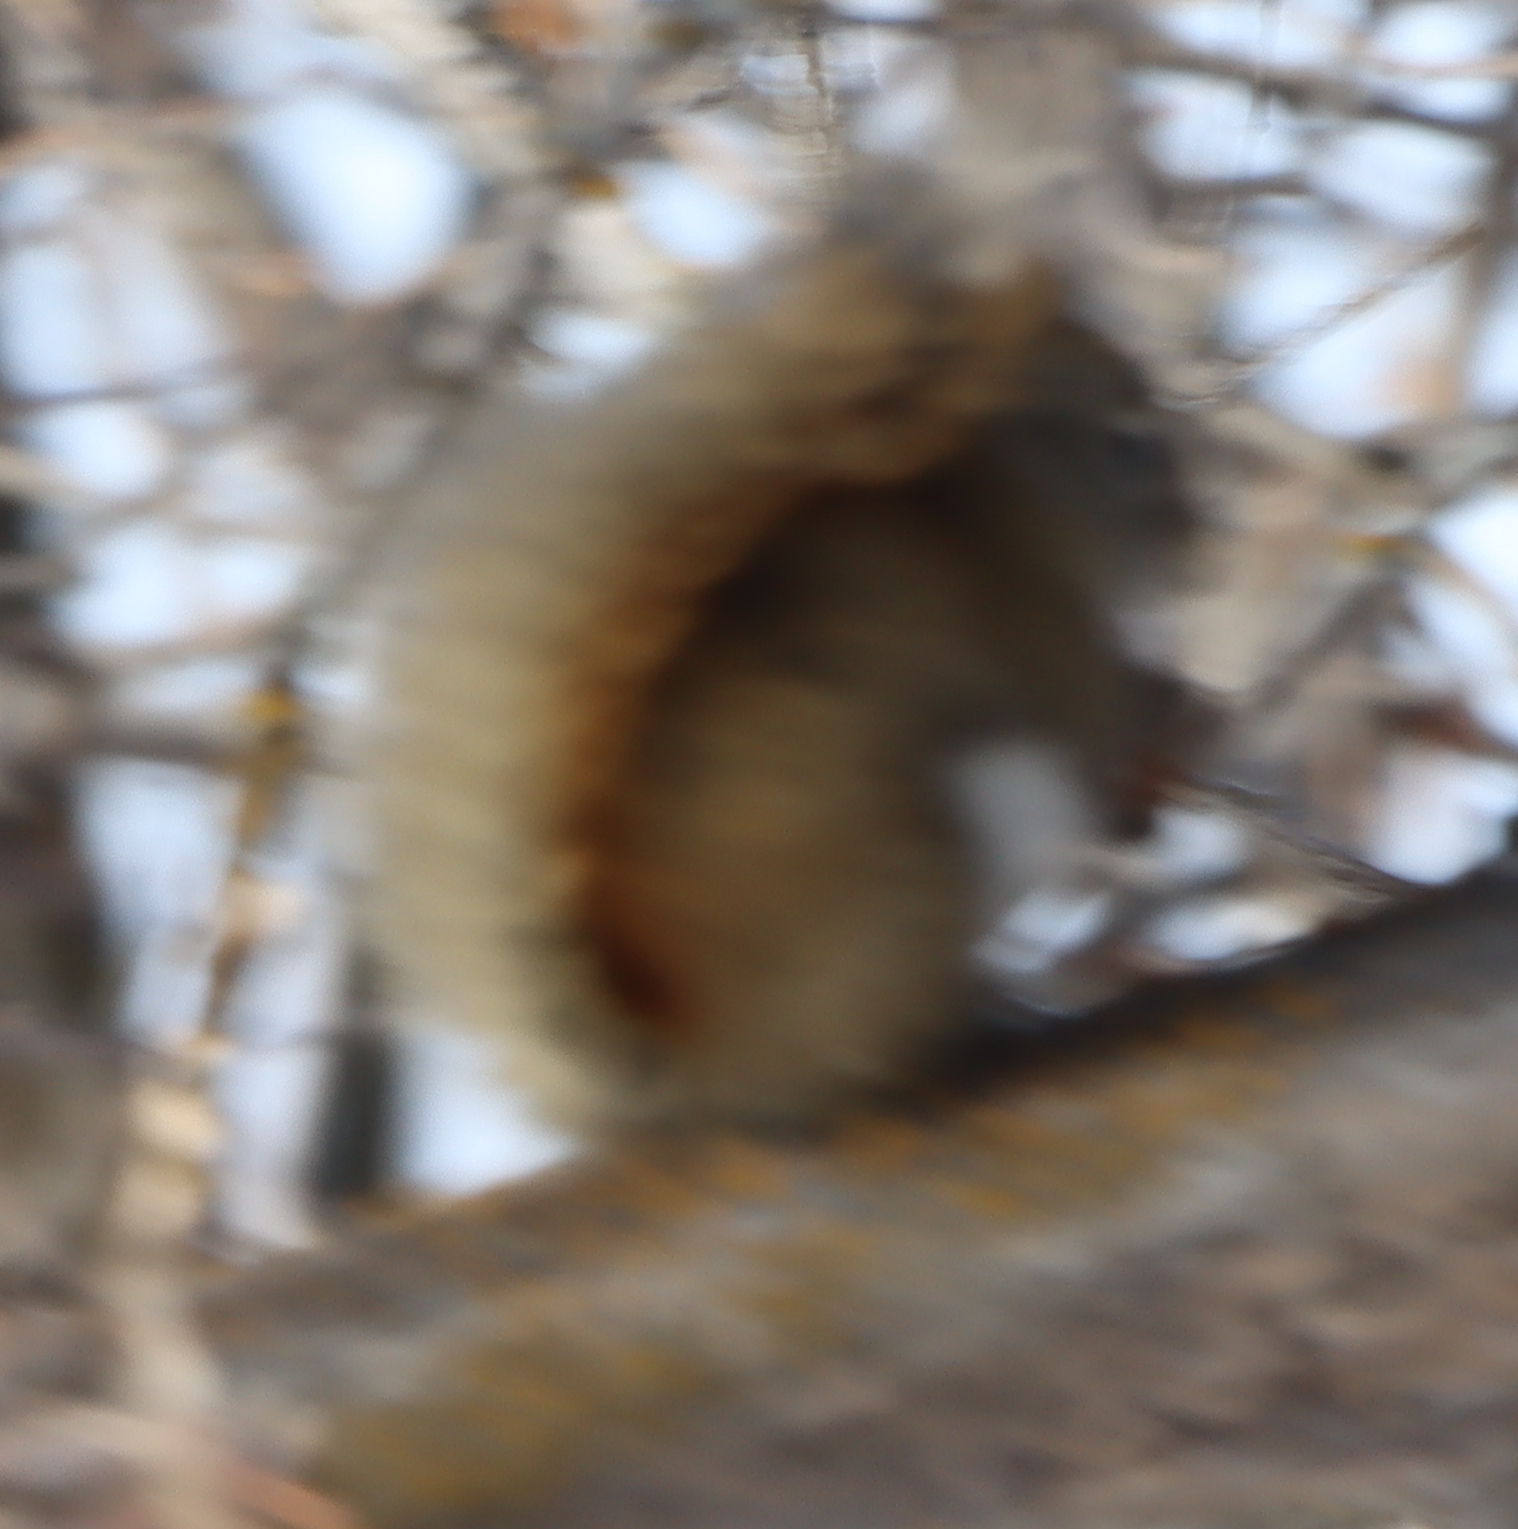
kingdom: Animalia
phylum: Chordata
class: Mammalia
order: Rodentia
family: Sciuridae
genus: Tamiasciurus
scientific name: Tamiasciurus hudsonicus
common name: Red squirrel
